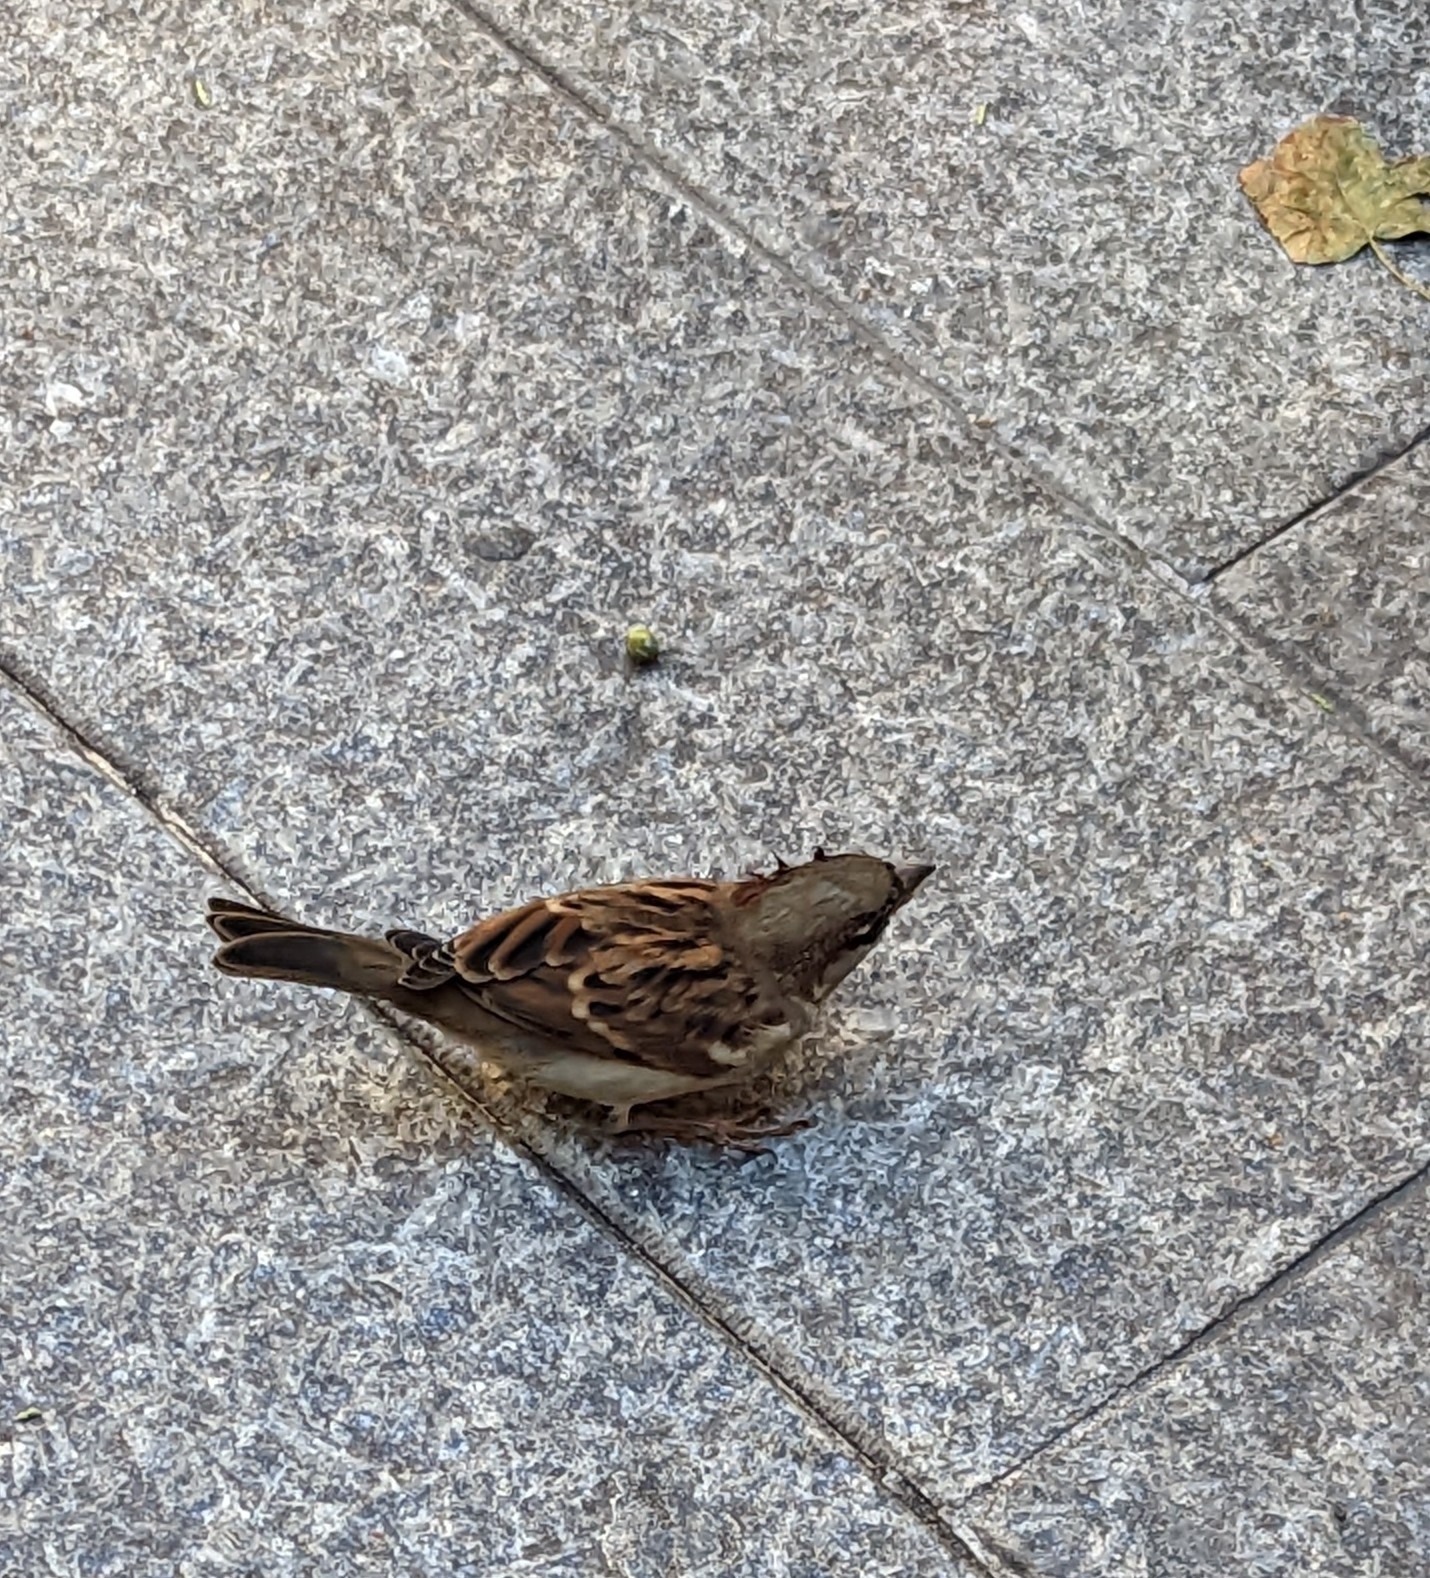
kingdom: Animalia
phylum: Chordata
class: Aves
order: Passeriformes
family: Passeridae
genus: Passer
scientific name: Passer domesticus
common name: House sparrow
